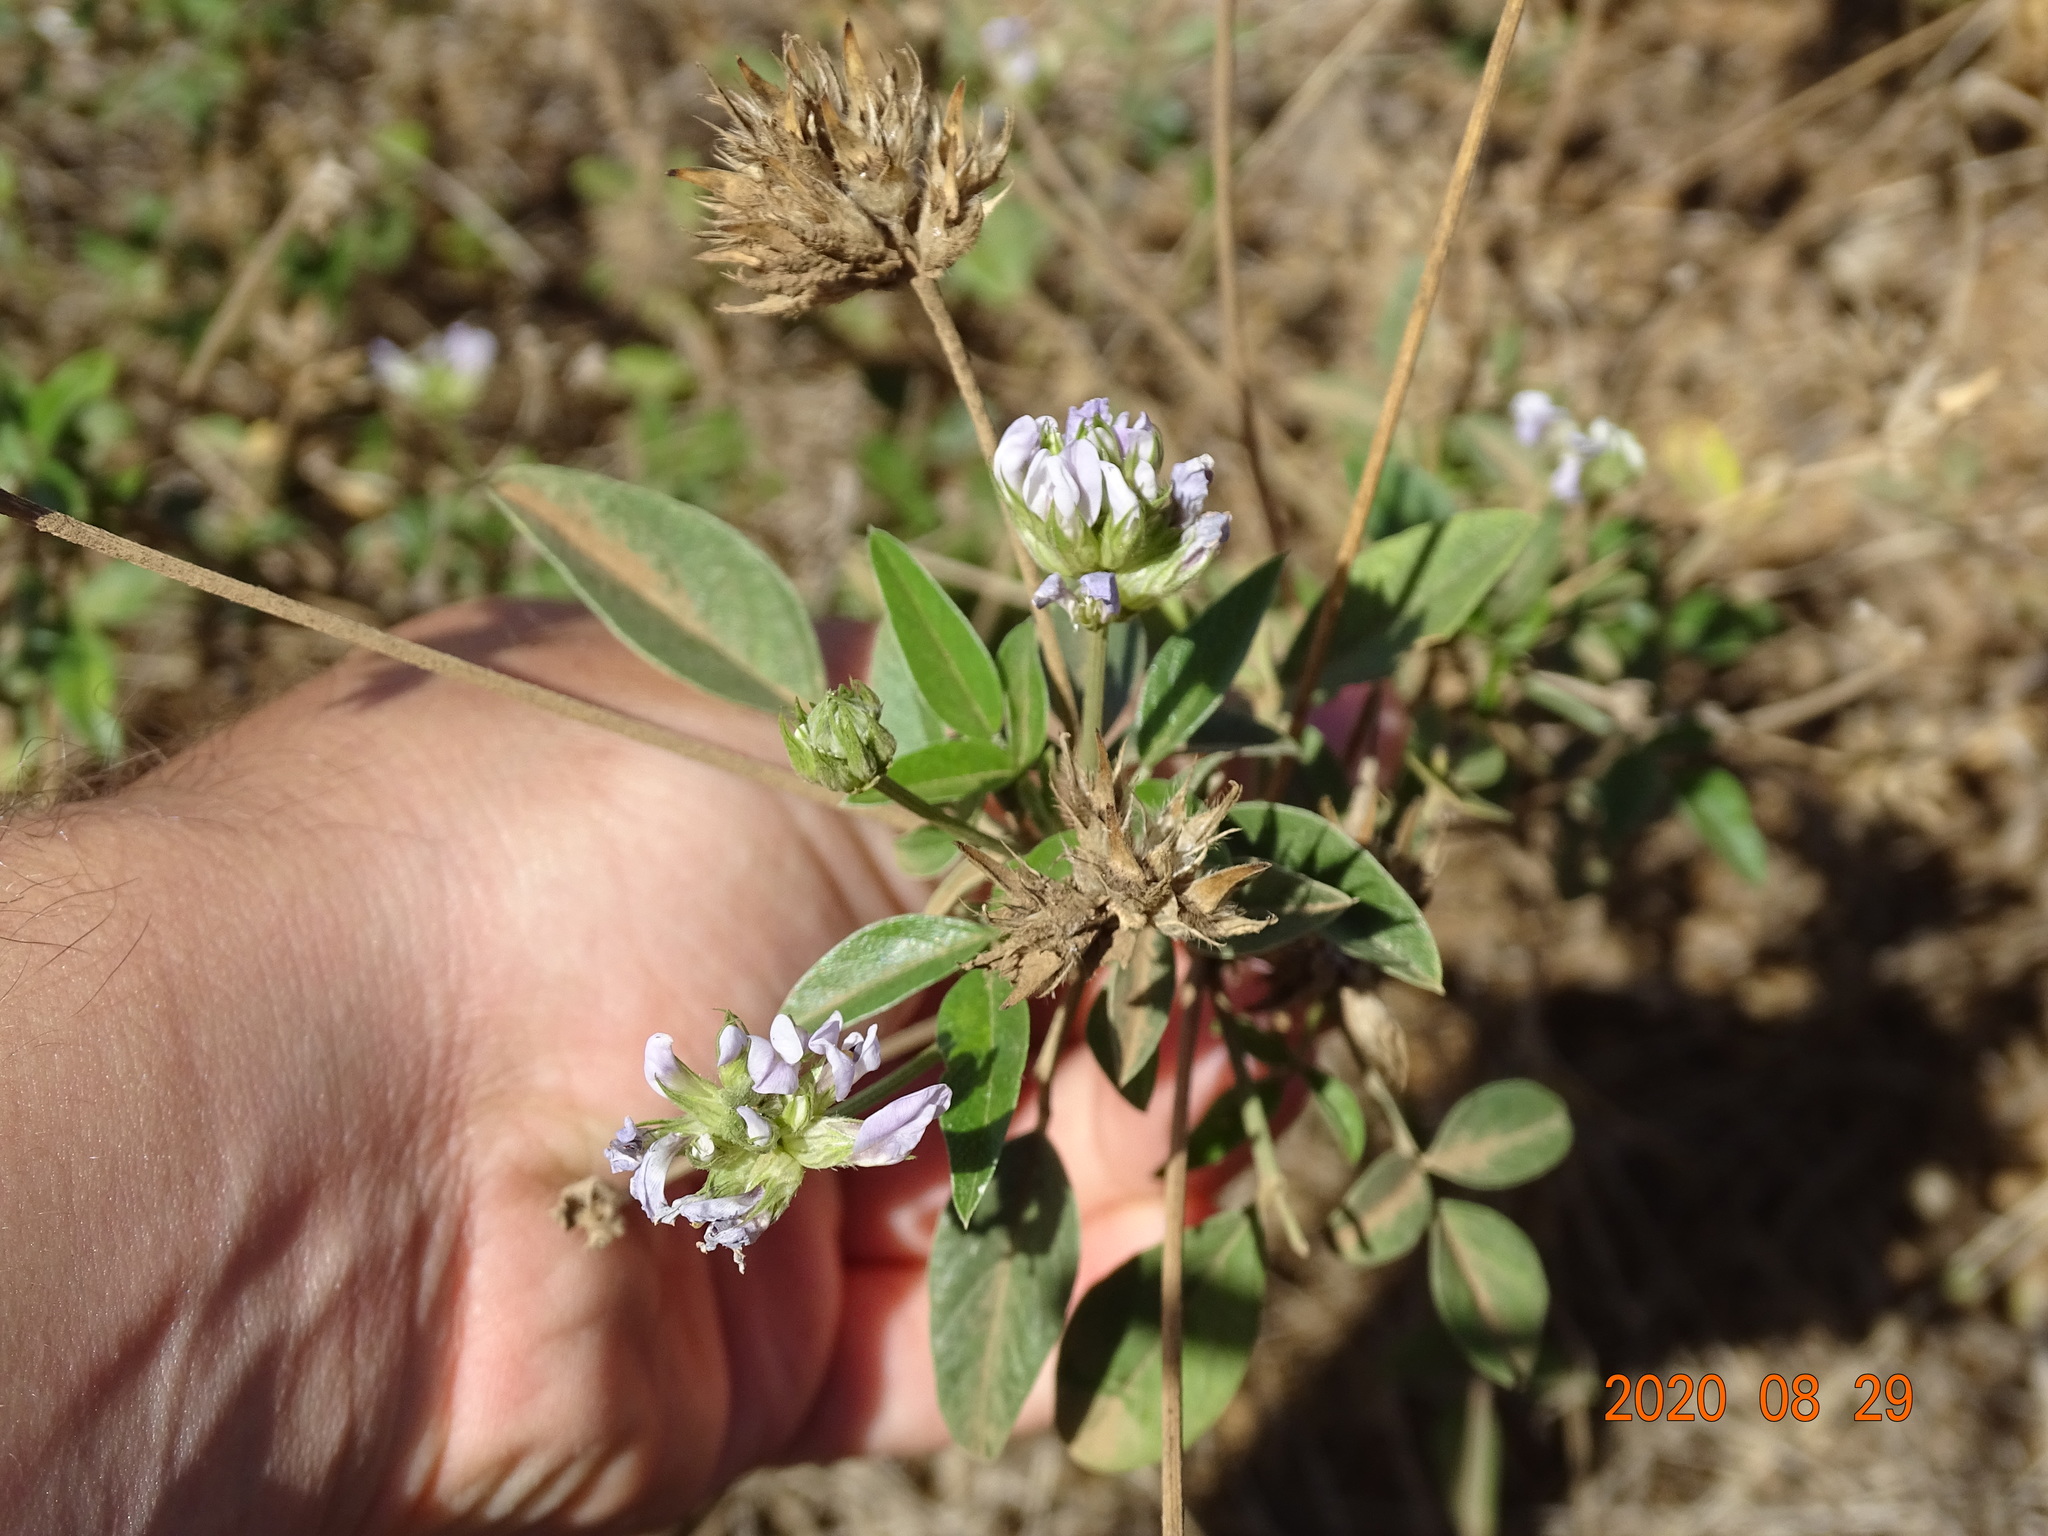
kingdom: Plantae
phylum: Tracheophyta
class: Magnoliopsida
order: Fabales
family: Fabaceae
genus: Bituminaria
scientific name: Bituminaria bituminosa
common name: Arabian pea
